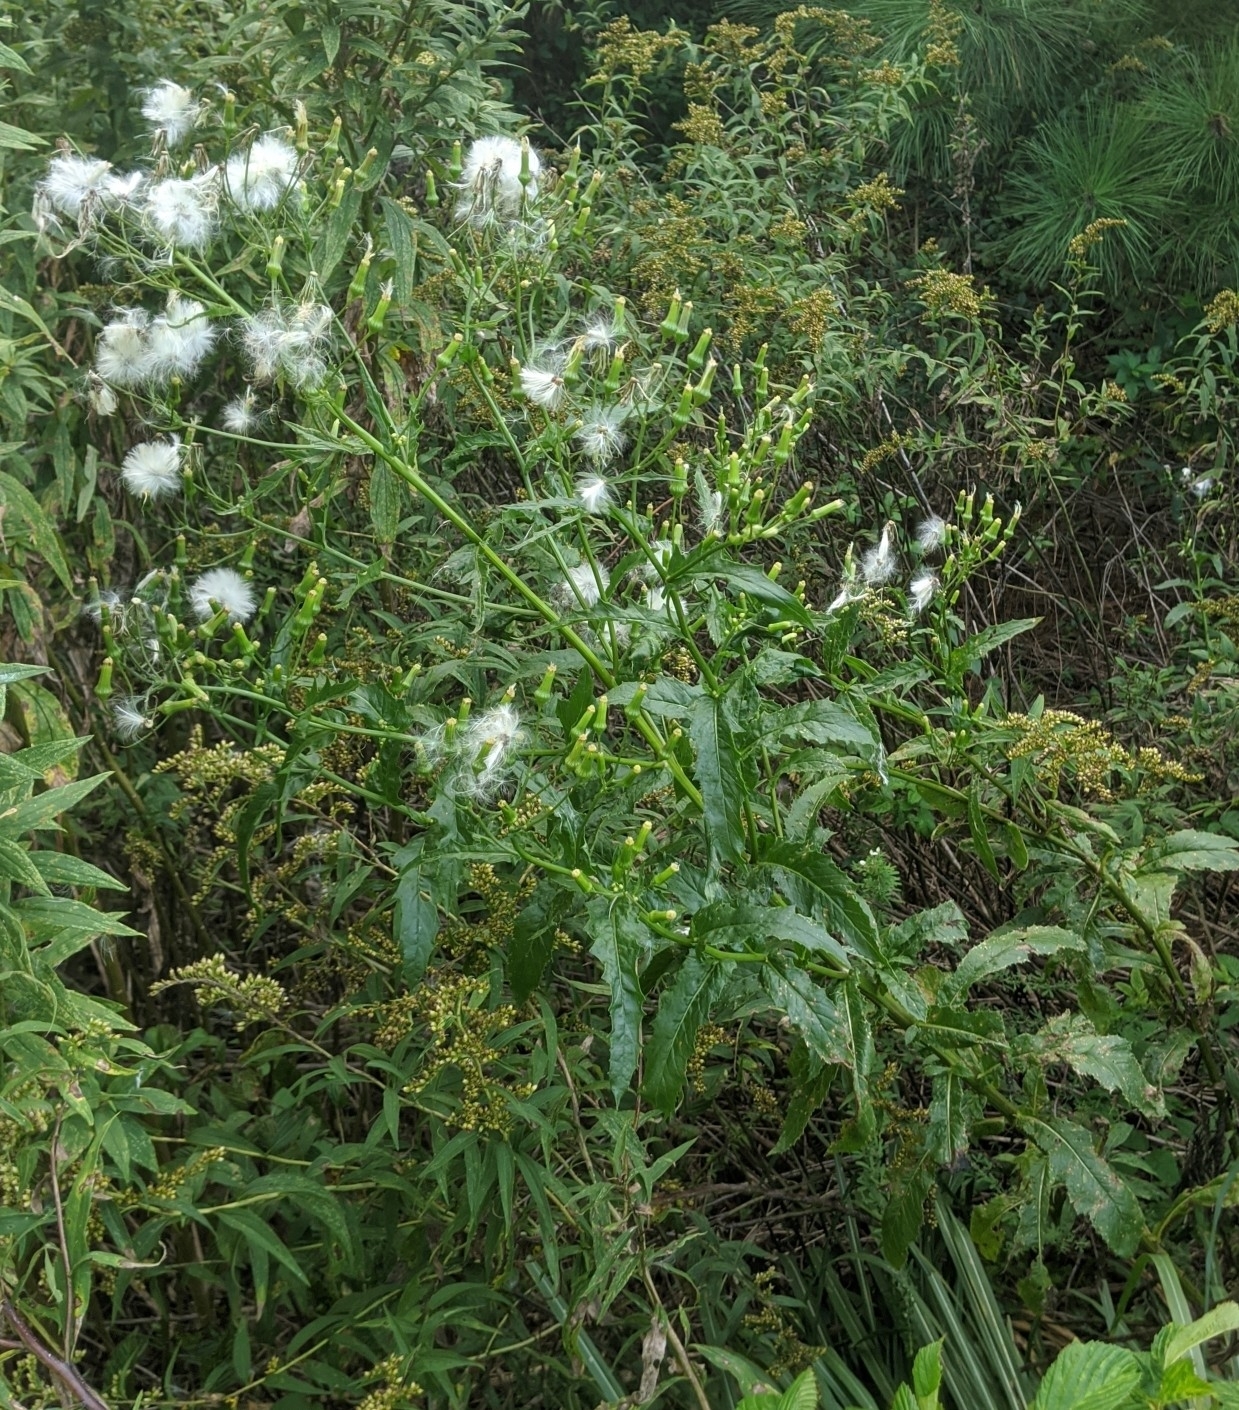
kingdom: Plantae
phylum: Tracheophyta
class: Magnoliopsida
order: Asterales
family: Asteraceae
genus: Erechtites
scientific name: Erechtites hieraciifolius
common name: American burnweed
